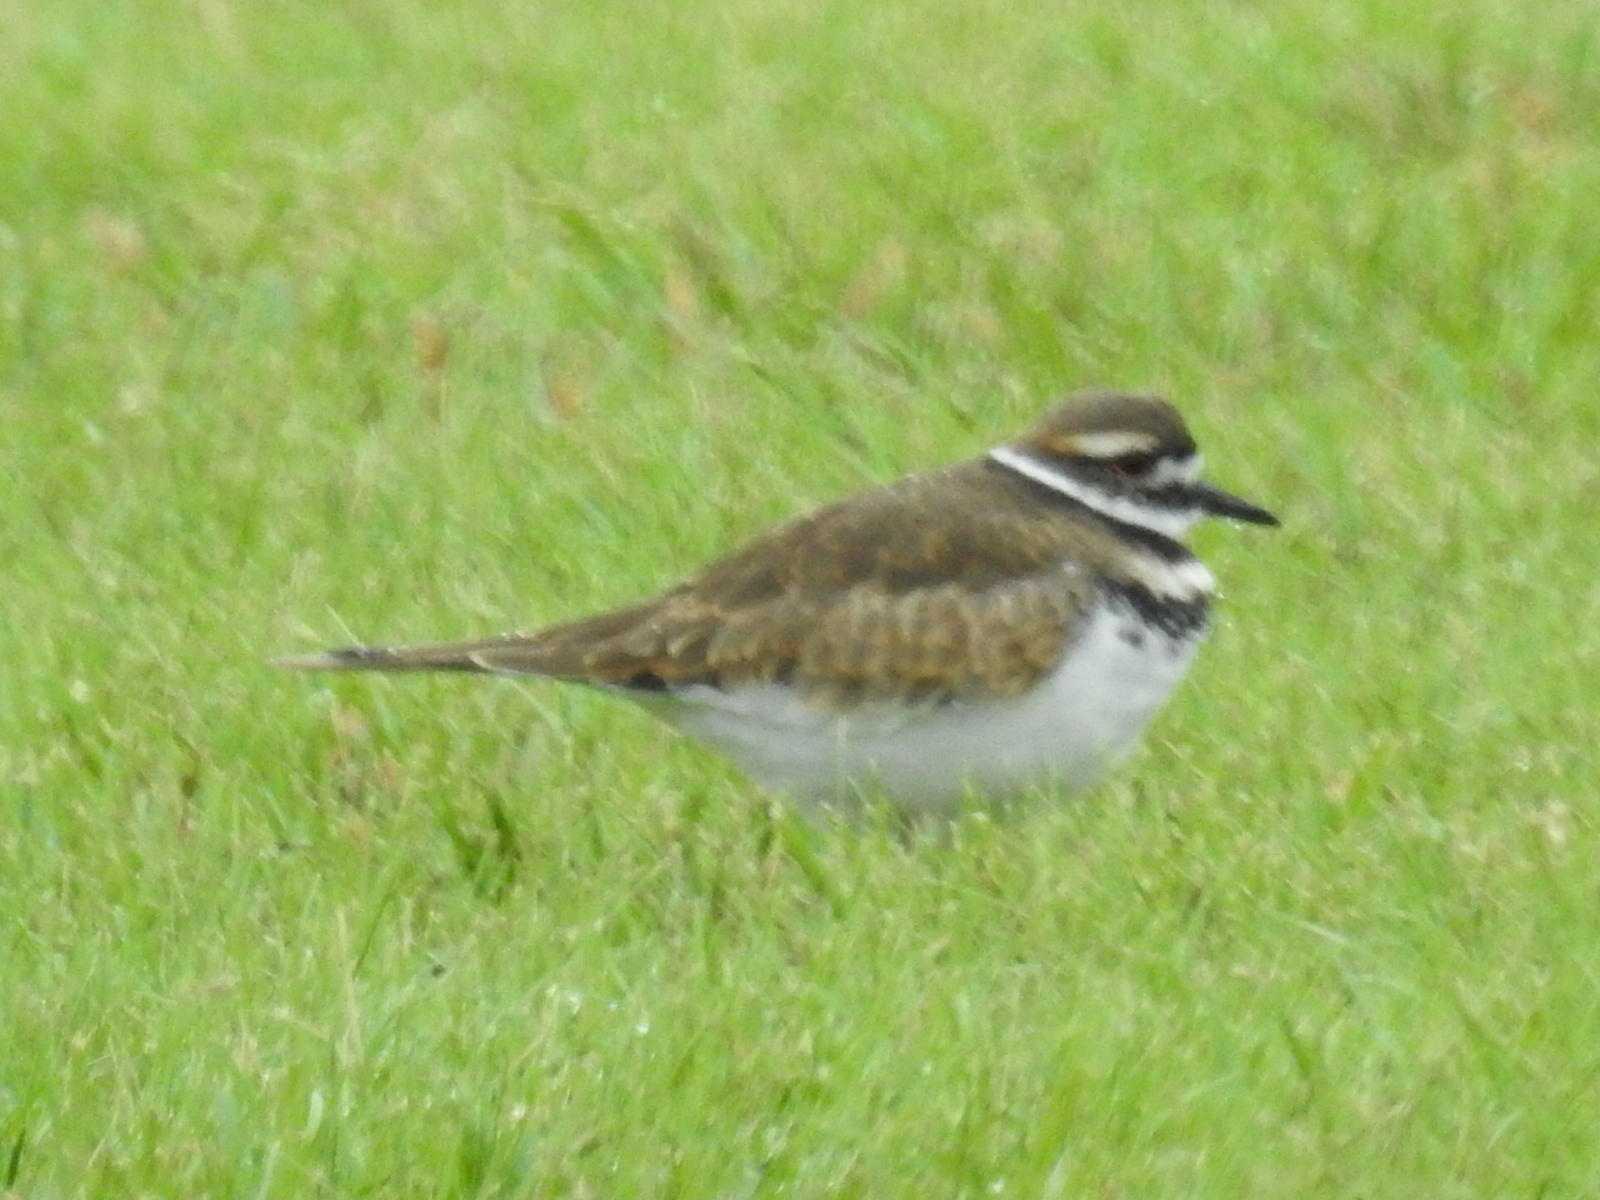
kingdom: Animalia
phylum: Chordata
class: Aves
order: Charadriiformes
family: Charadriidae
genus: Charadrius
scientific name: Charadrius vociferus
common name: Killdeer
